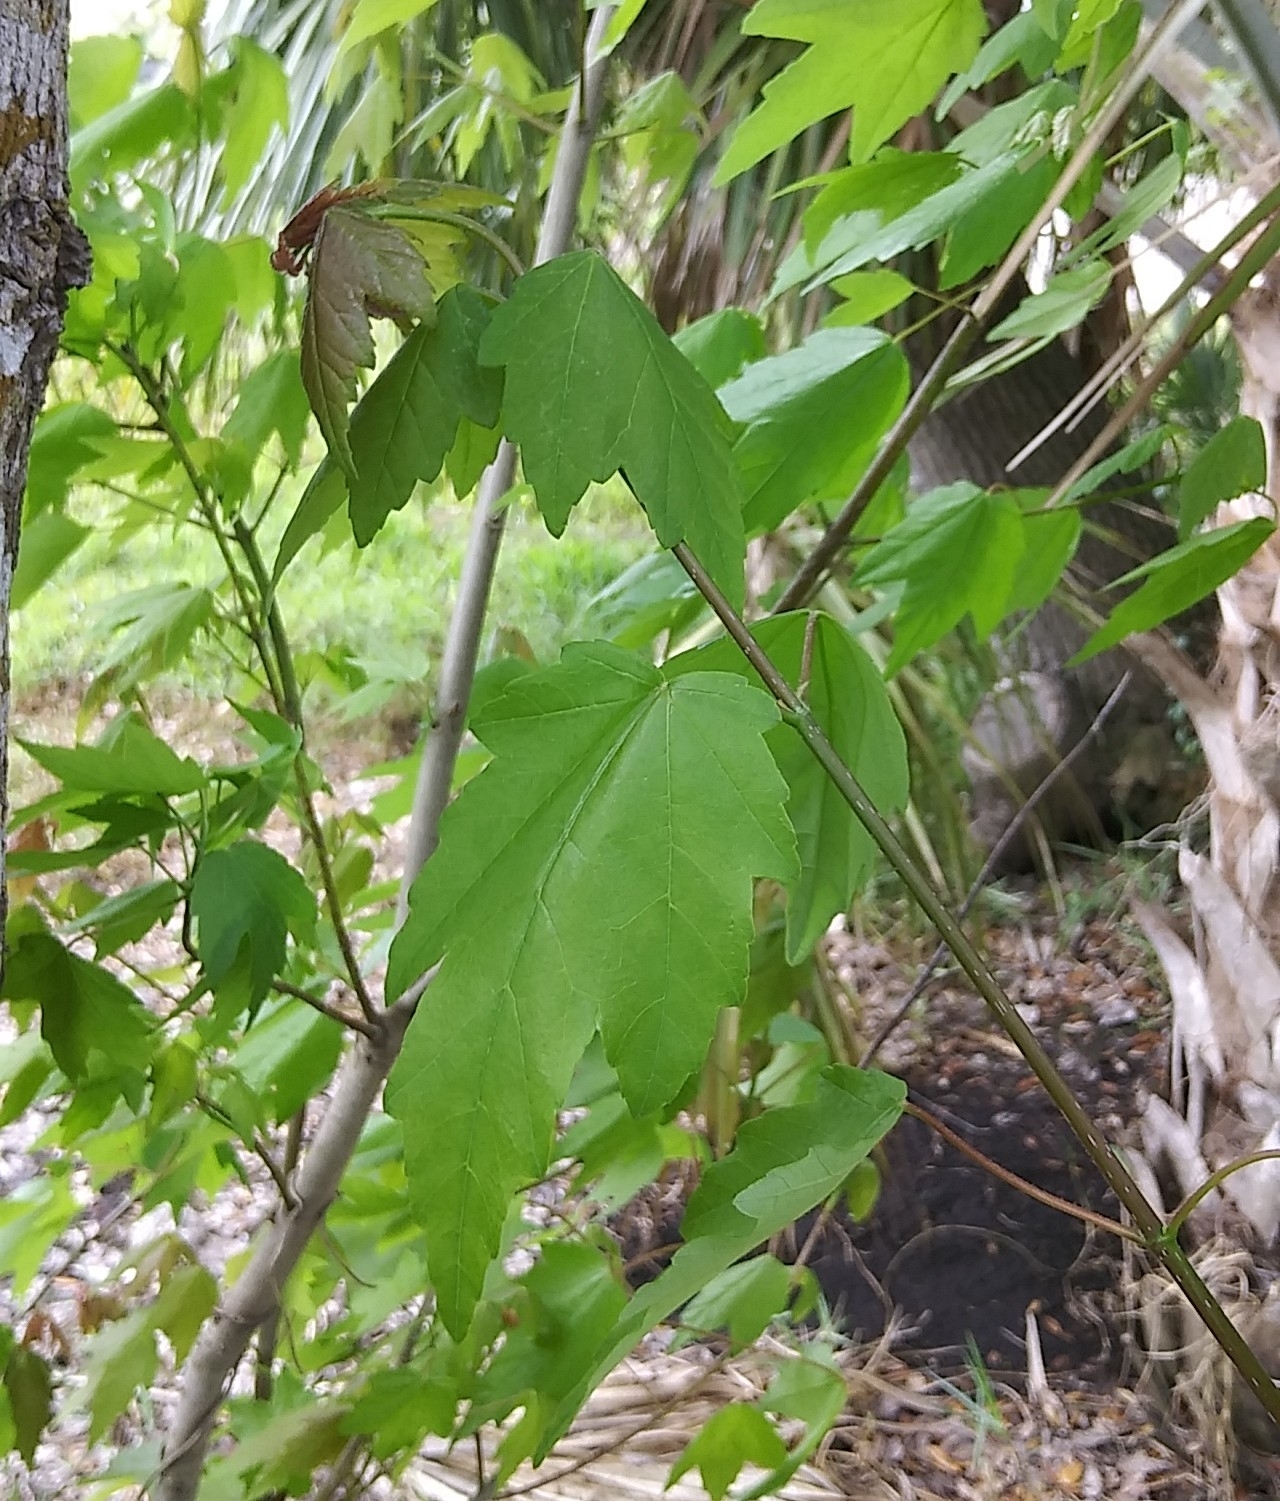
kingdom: Plantae
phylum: Tracheophyta
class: Magnoliopsida
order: Sapindales
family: Sapindaceae
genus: Acer
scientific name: Acer rubrum
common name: Red maple
